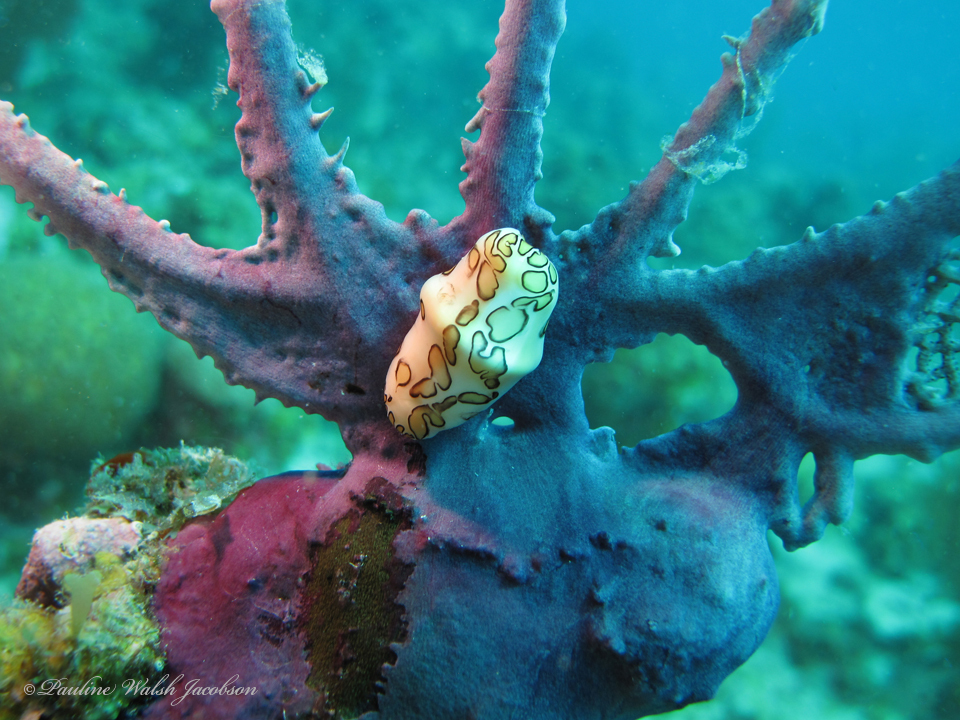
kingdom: Animalia
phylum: Mollusca
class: Gastropoda
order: Littorinimorpha
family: Ovulidae
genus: Cyphoma
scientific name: Cyphoma gibbosum
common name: Flamingo tongue
